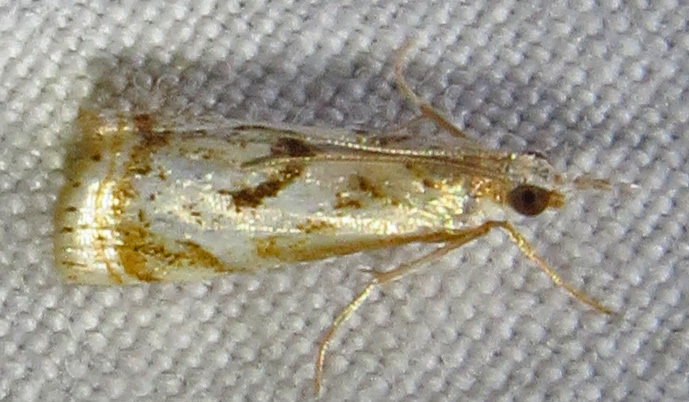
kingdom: Animalia
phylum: Arthropoda
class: Insecta
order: Lepidoptera
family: Crambidae
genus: Microcrambus
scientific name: Microcrambus elegans
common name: Elegant grass-veneer
